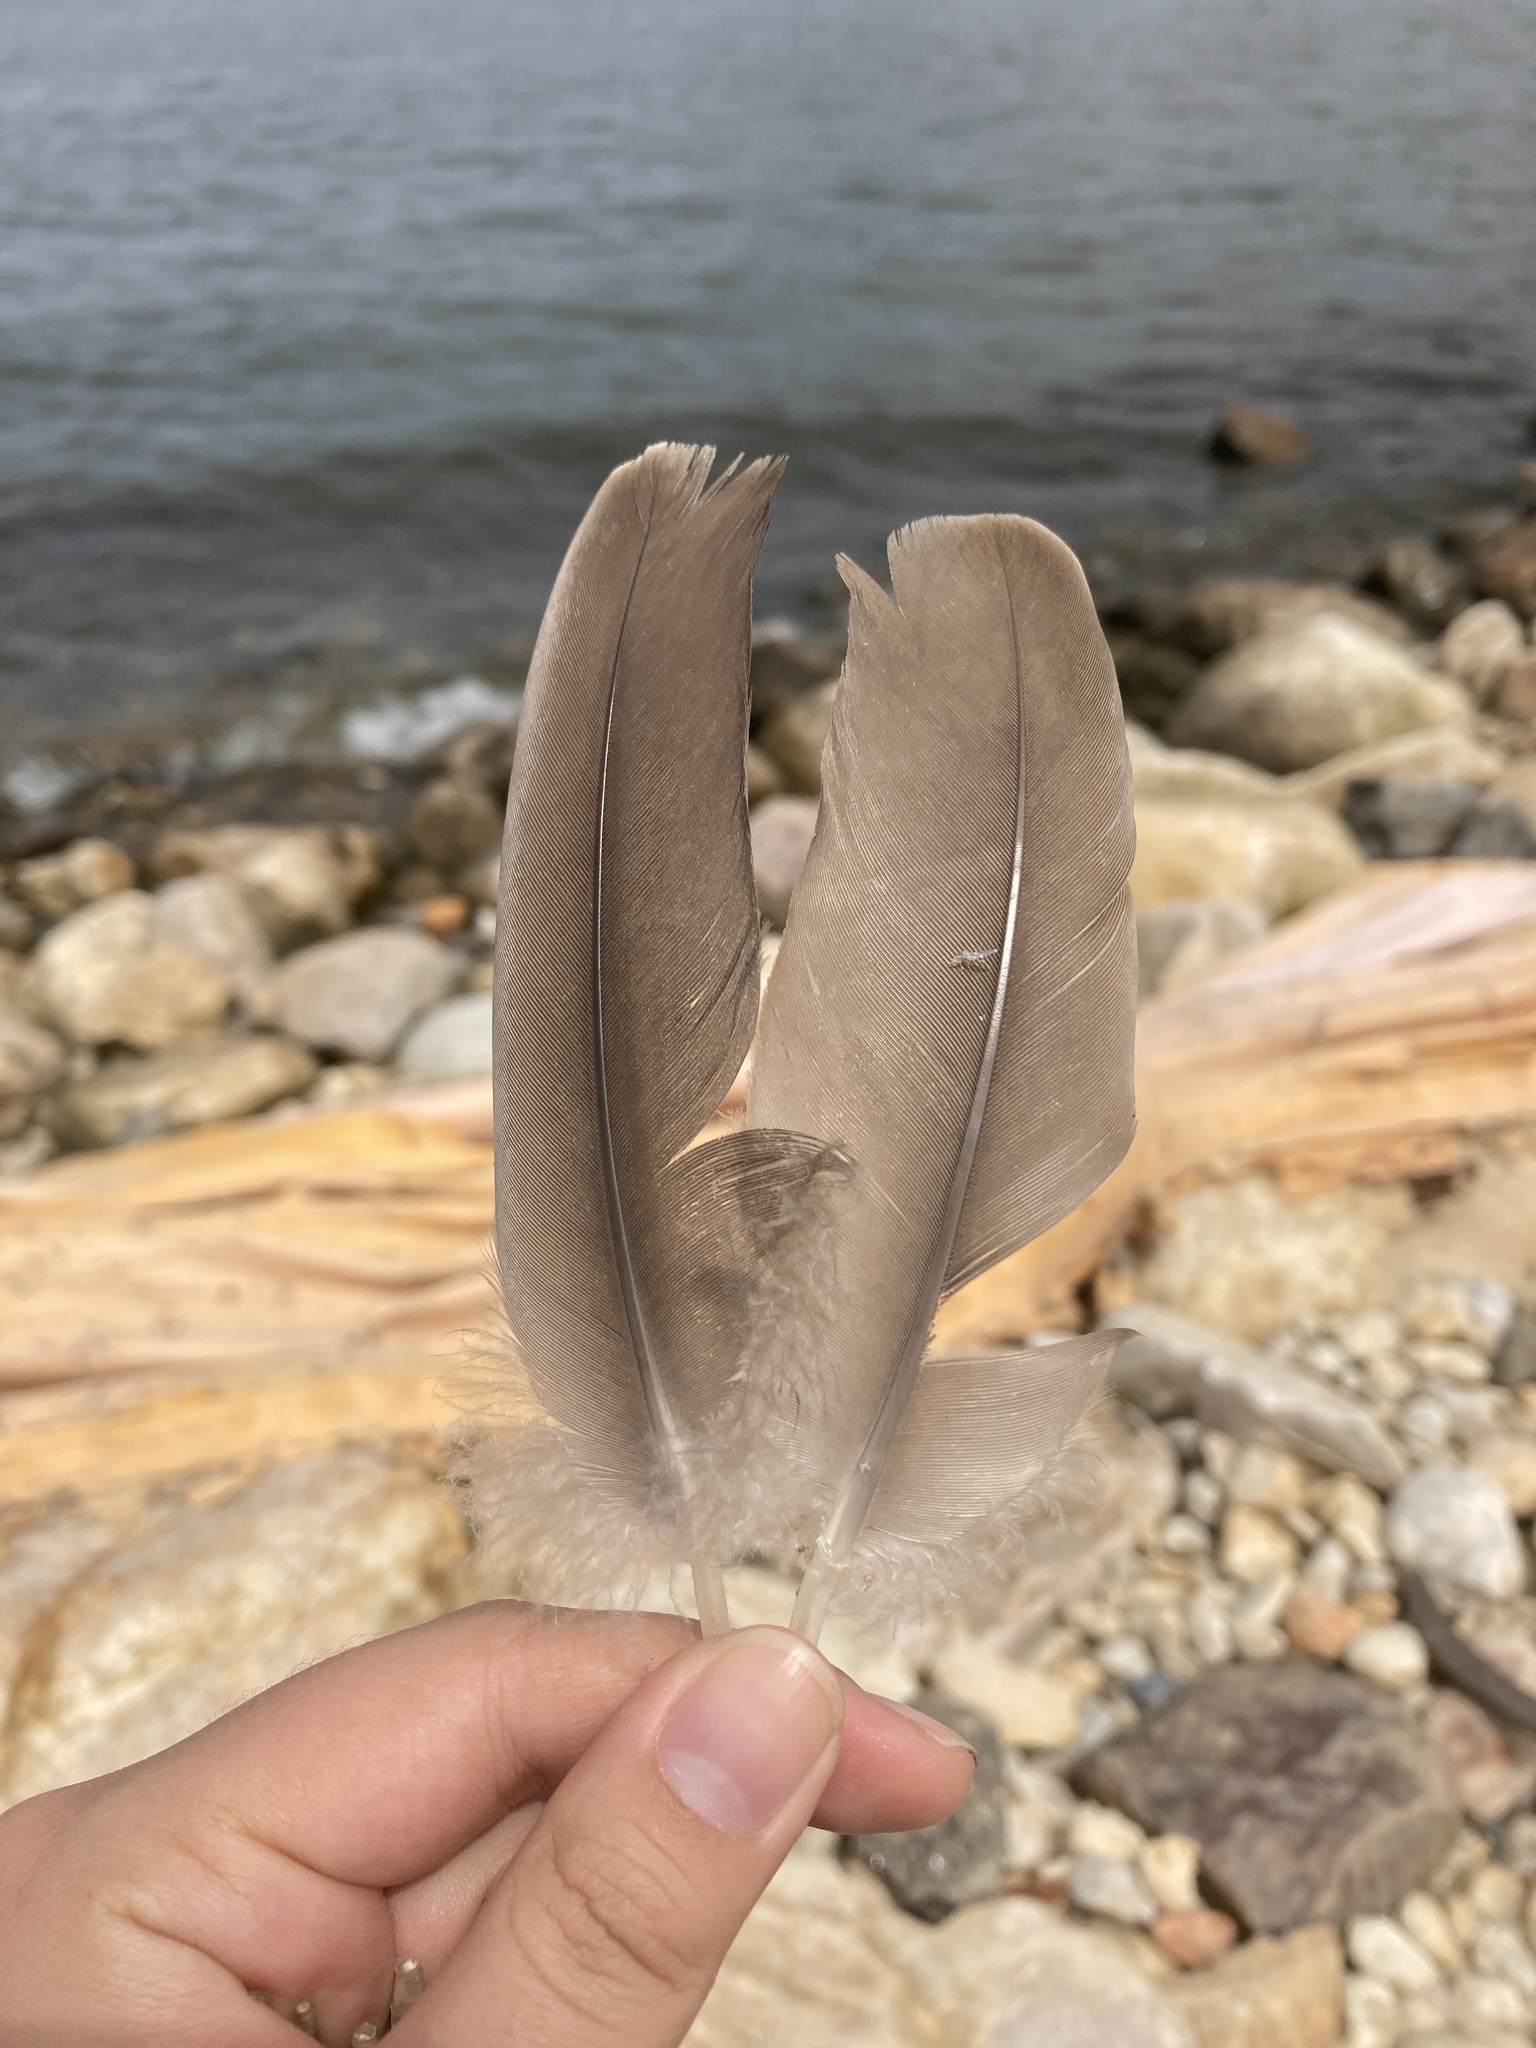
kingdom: Animalia
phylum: Chordata
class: Aves
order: Anseriformes
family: Anatidae
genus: Branta
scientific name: Branta canadensis
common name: Canada goose
